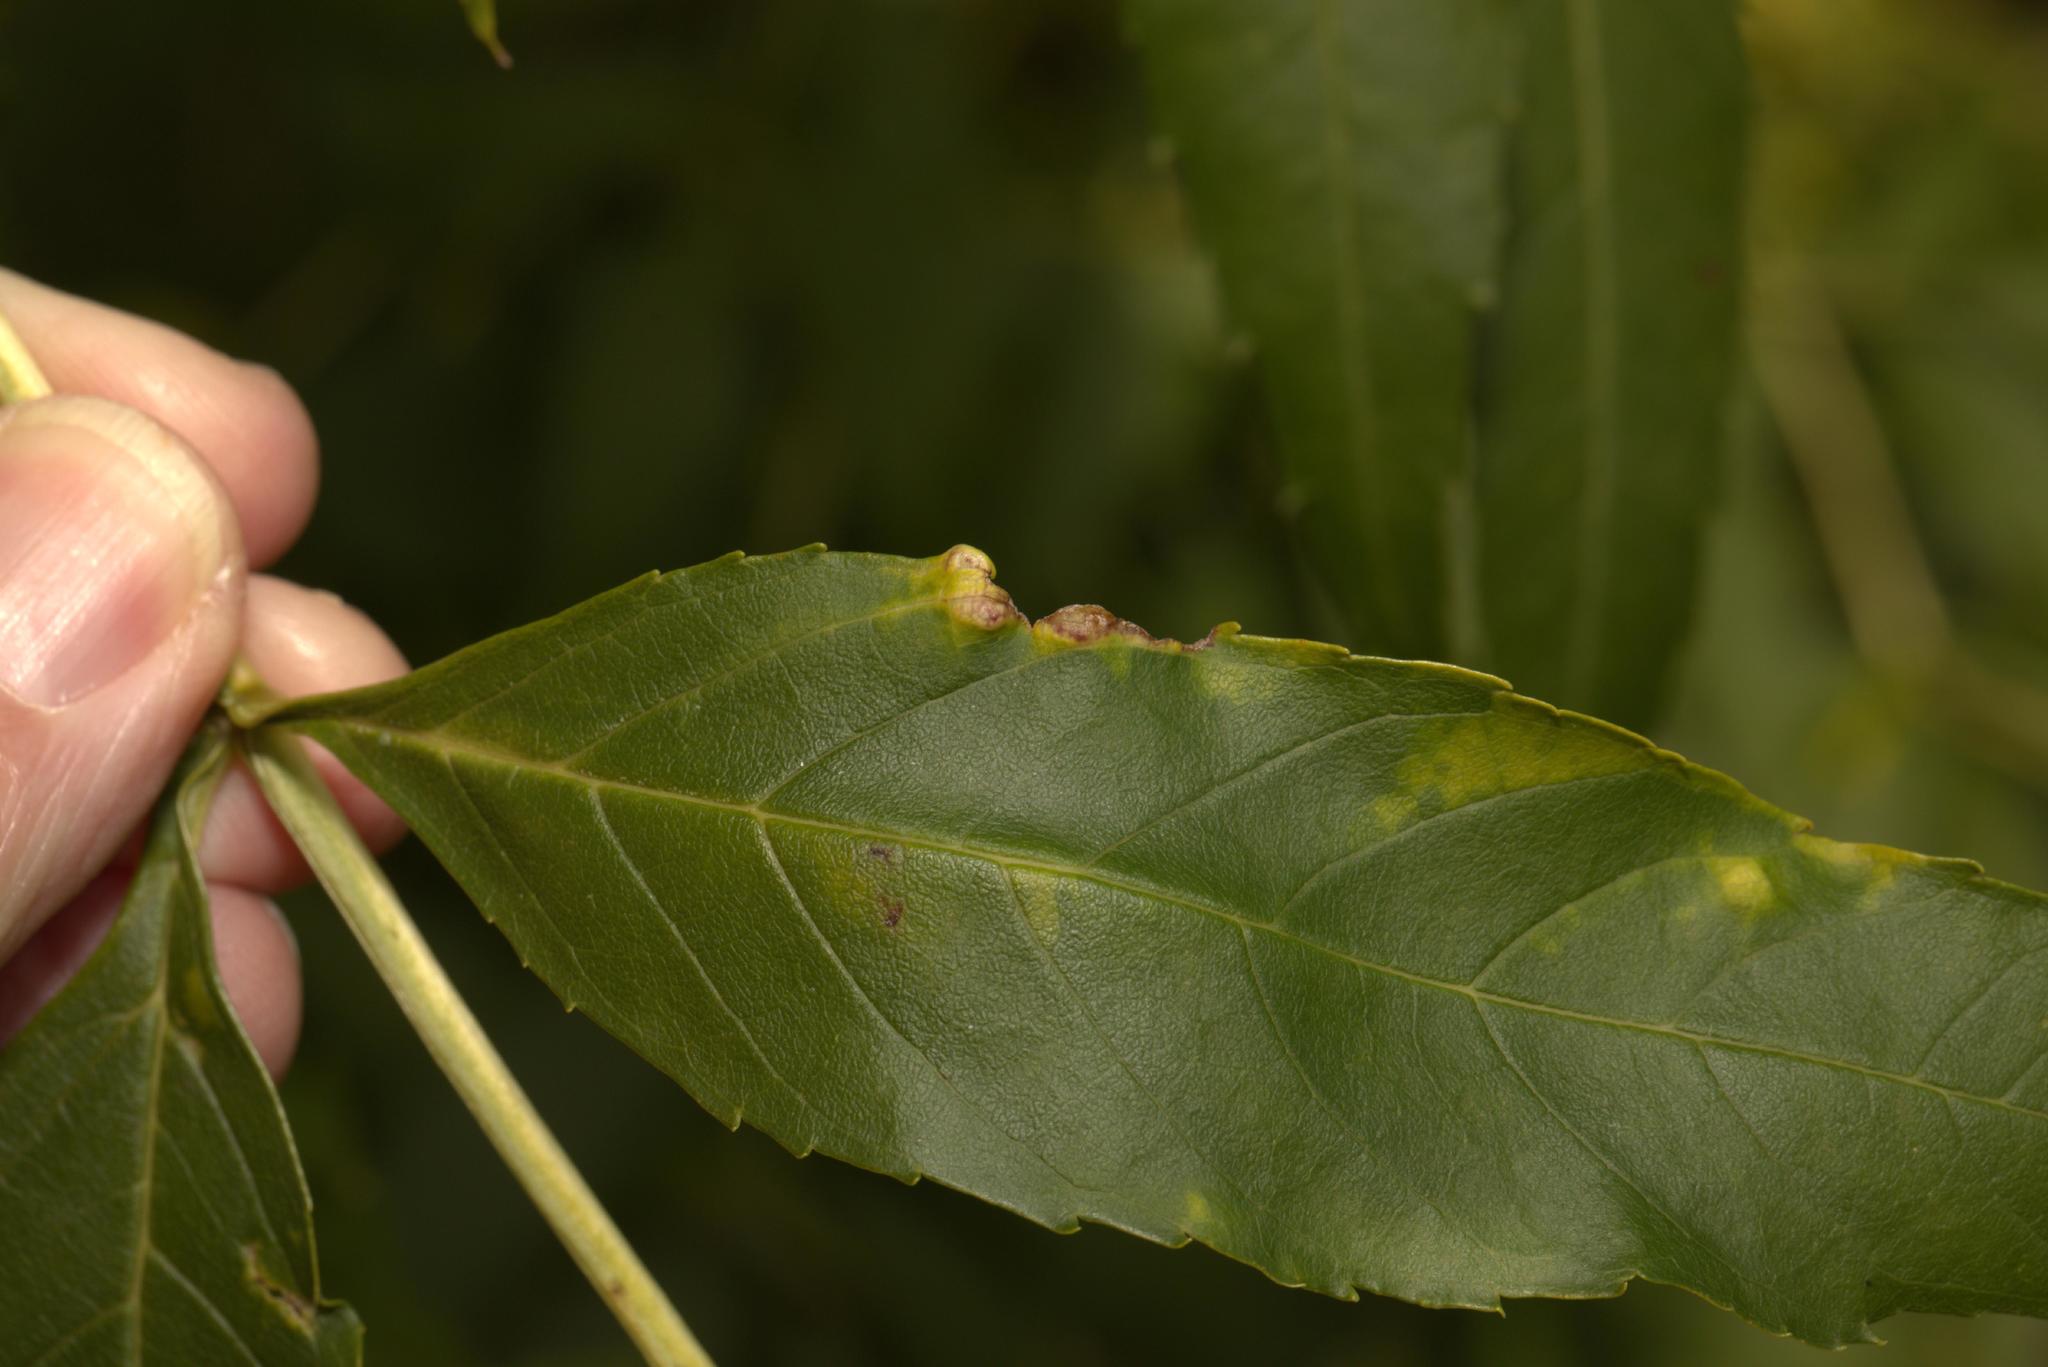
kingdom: Animalia
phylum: Arthropoda
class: Insecta
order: Hemiptera
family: Liviidae
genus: Psyllopsis
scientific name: Psyllopsis fraxini
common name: Jumping plant louse
